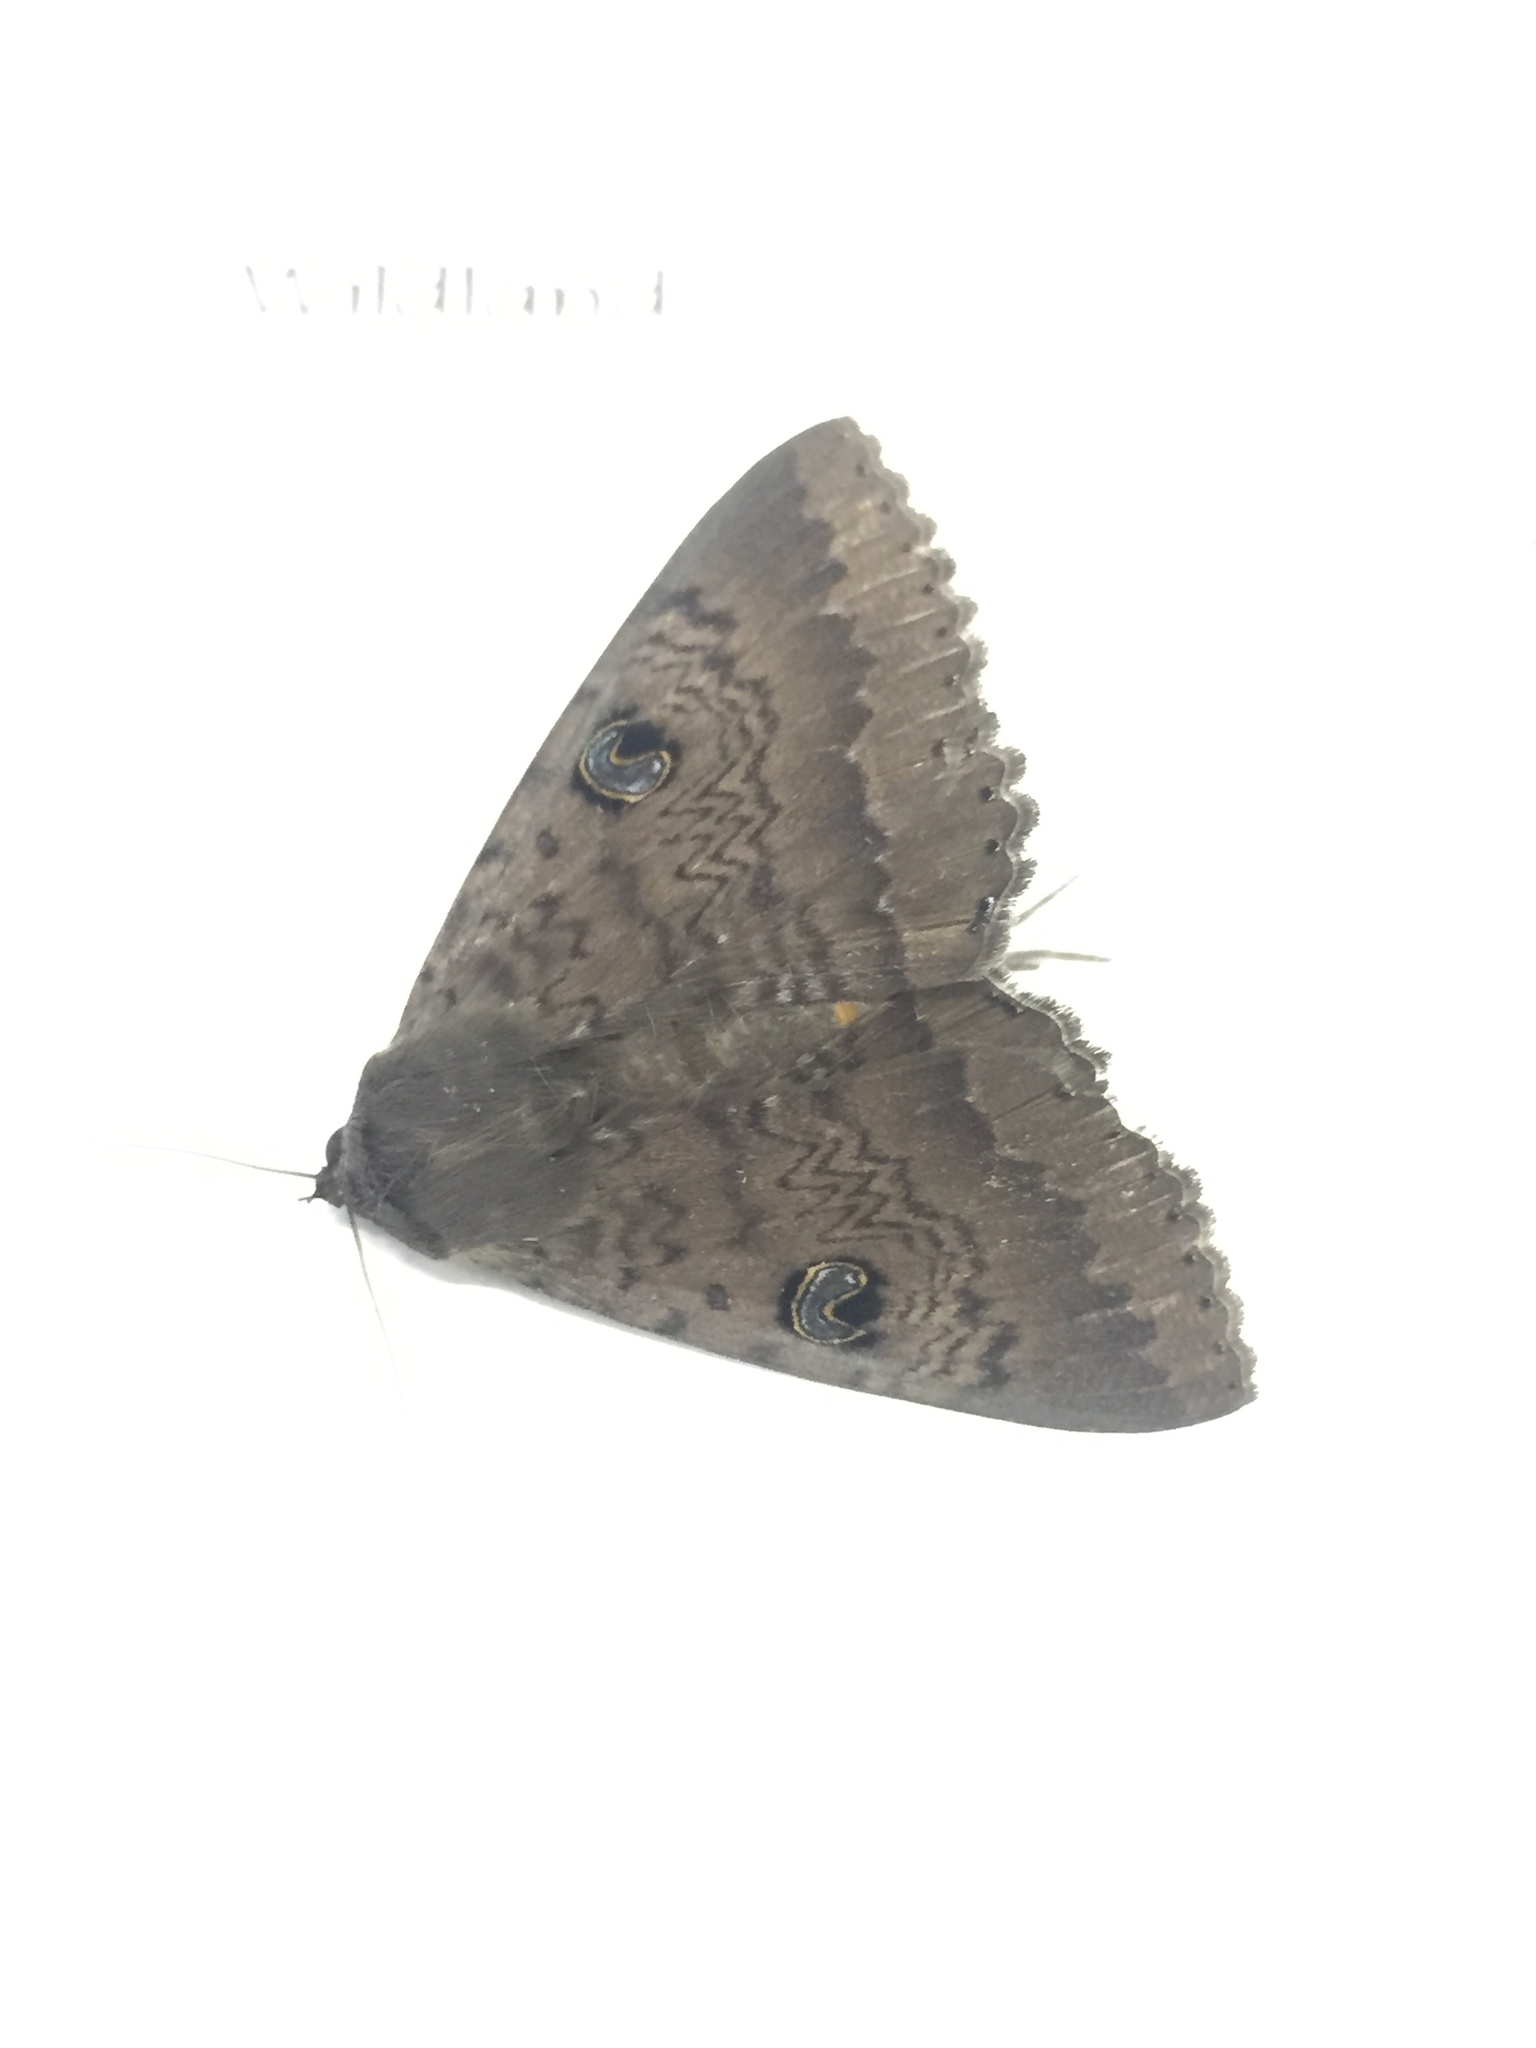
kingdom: Animalia
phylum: Arthropoda
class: Insecta
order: Lepidoptera
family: Erebidae
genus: Dasypodia
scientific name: Dasypodia cymatodes
